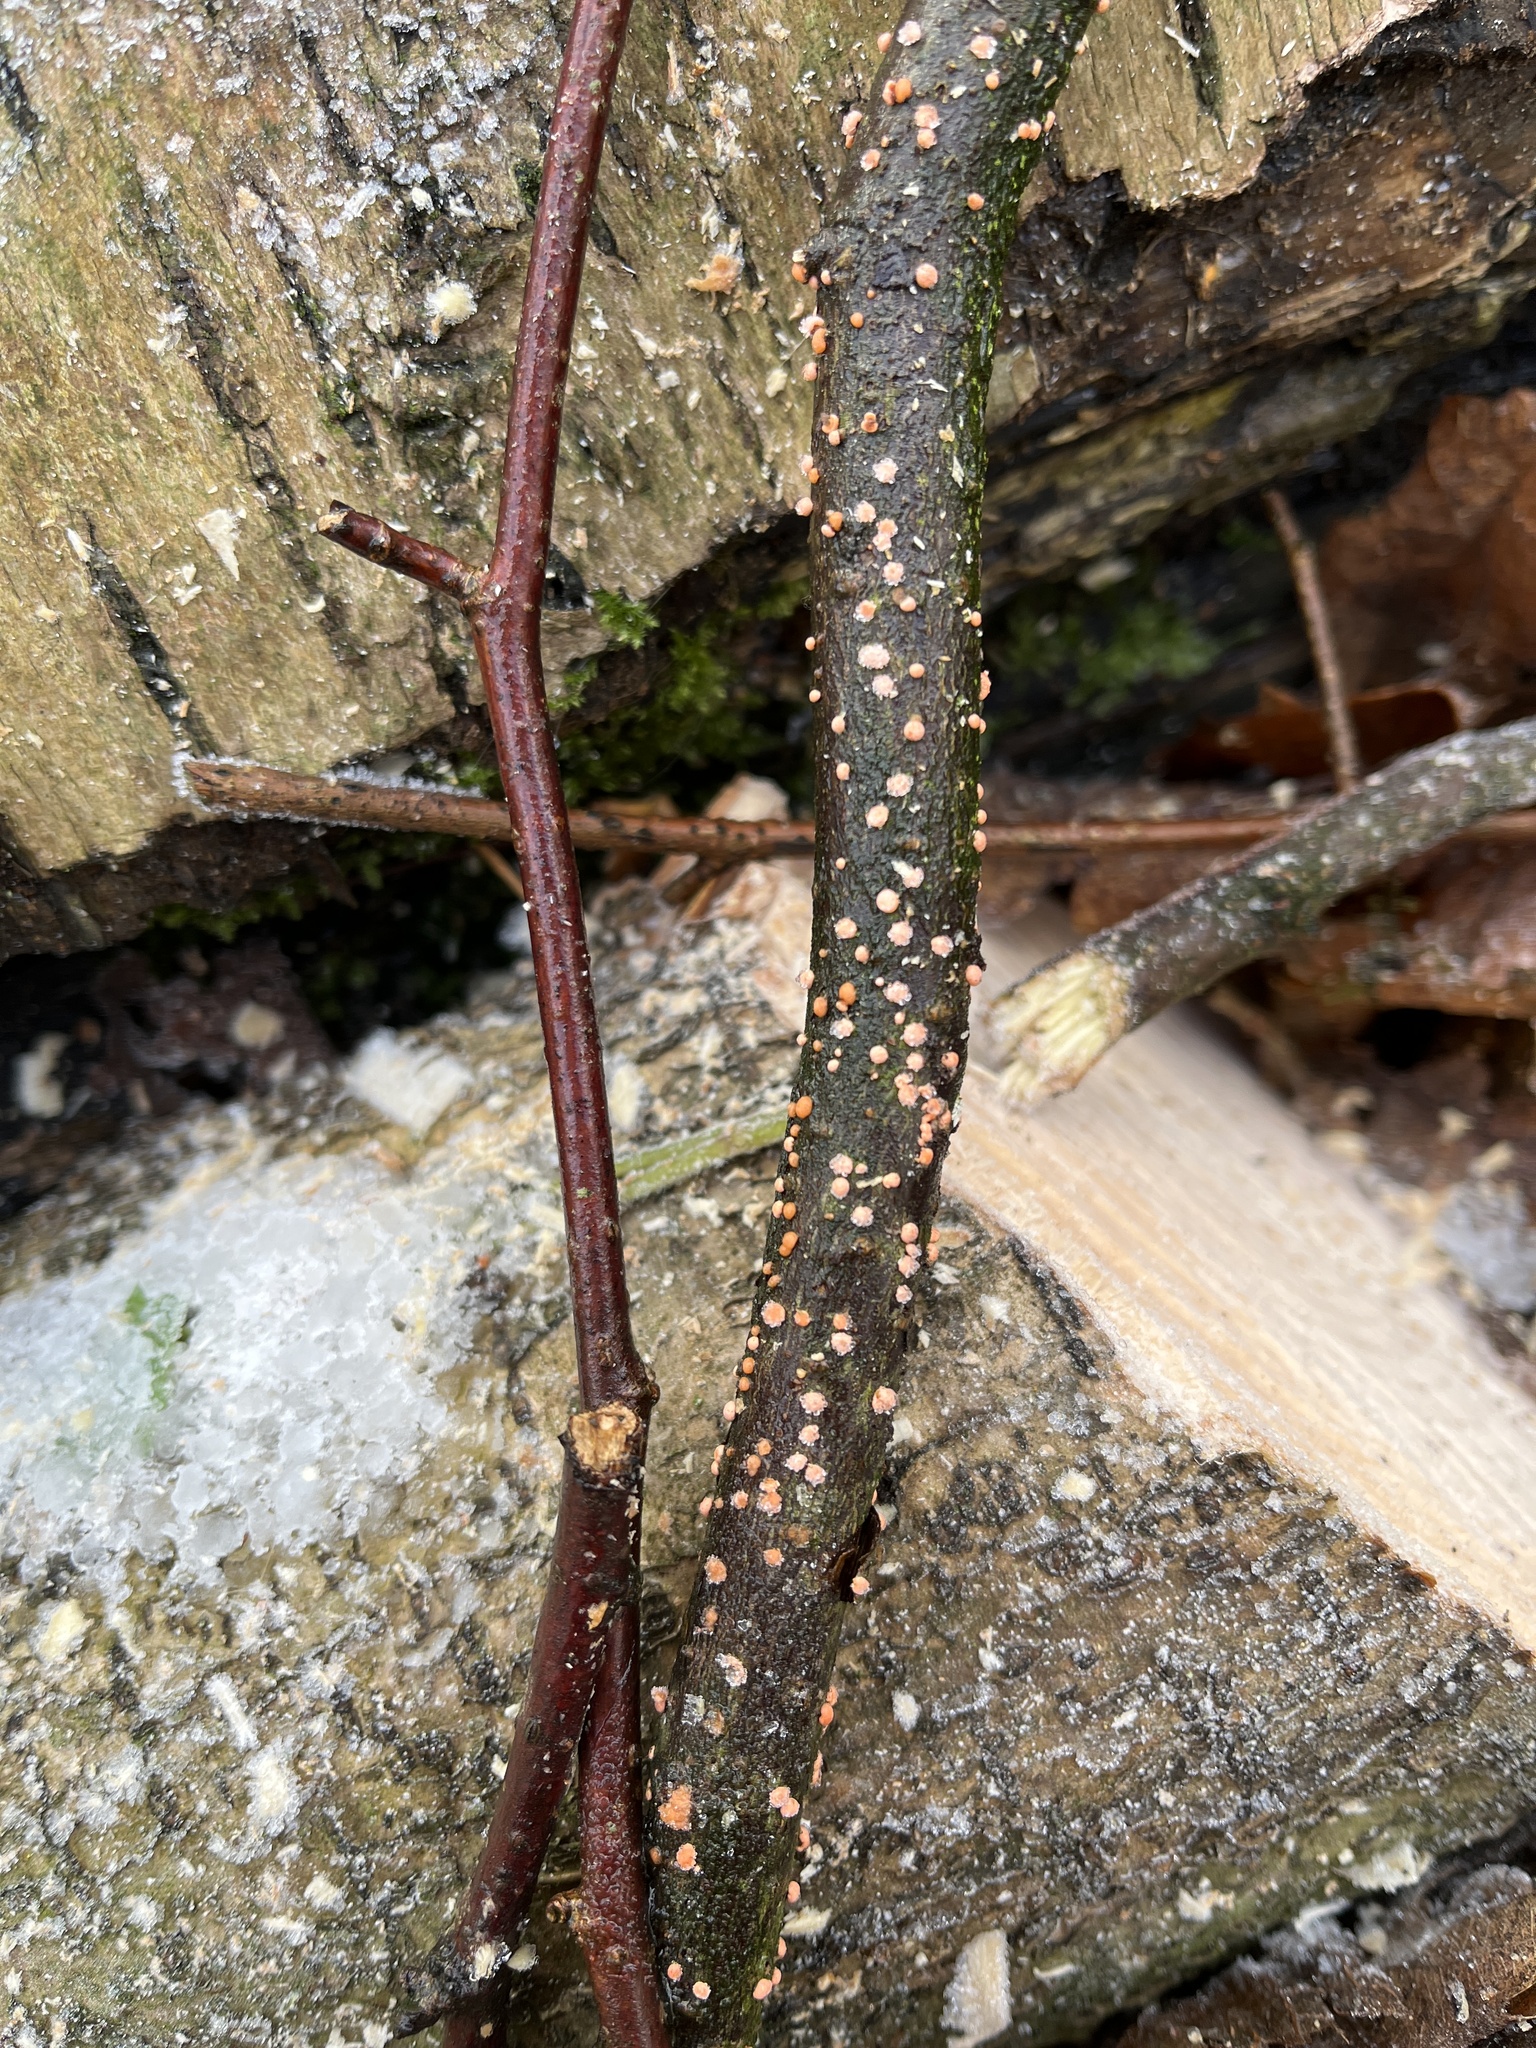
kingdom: Fungi
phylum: Ascomycota
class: Sordariomycetes
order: Hypocreales
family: Nectriaceae
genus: Nectria
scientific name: Nectria cinnabarina
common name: Coral spot
